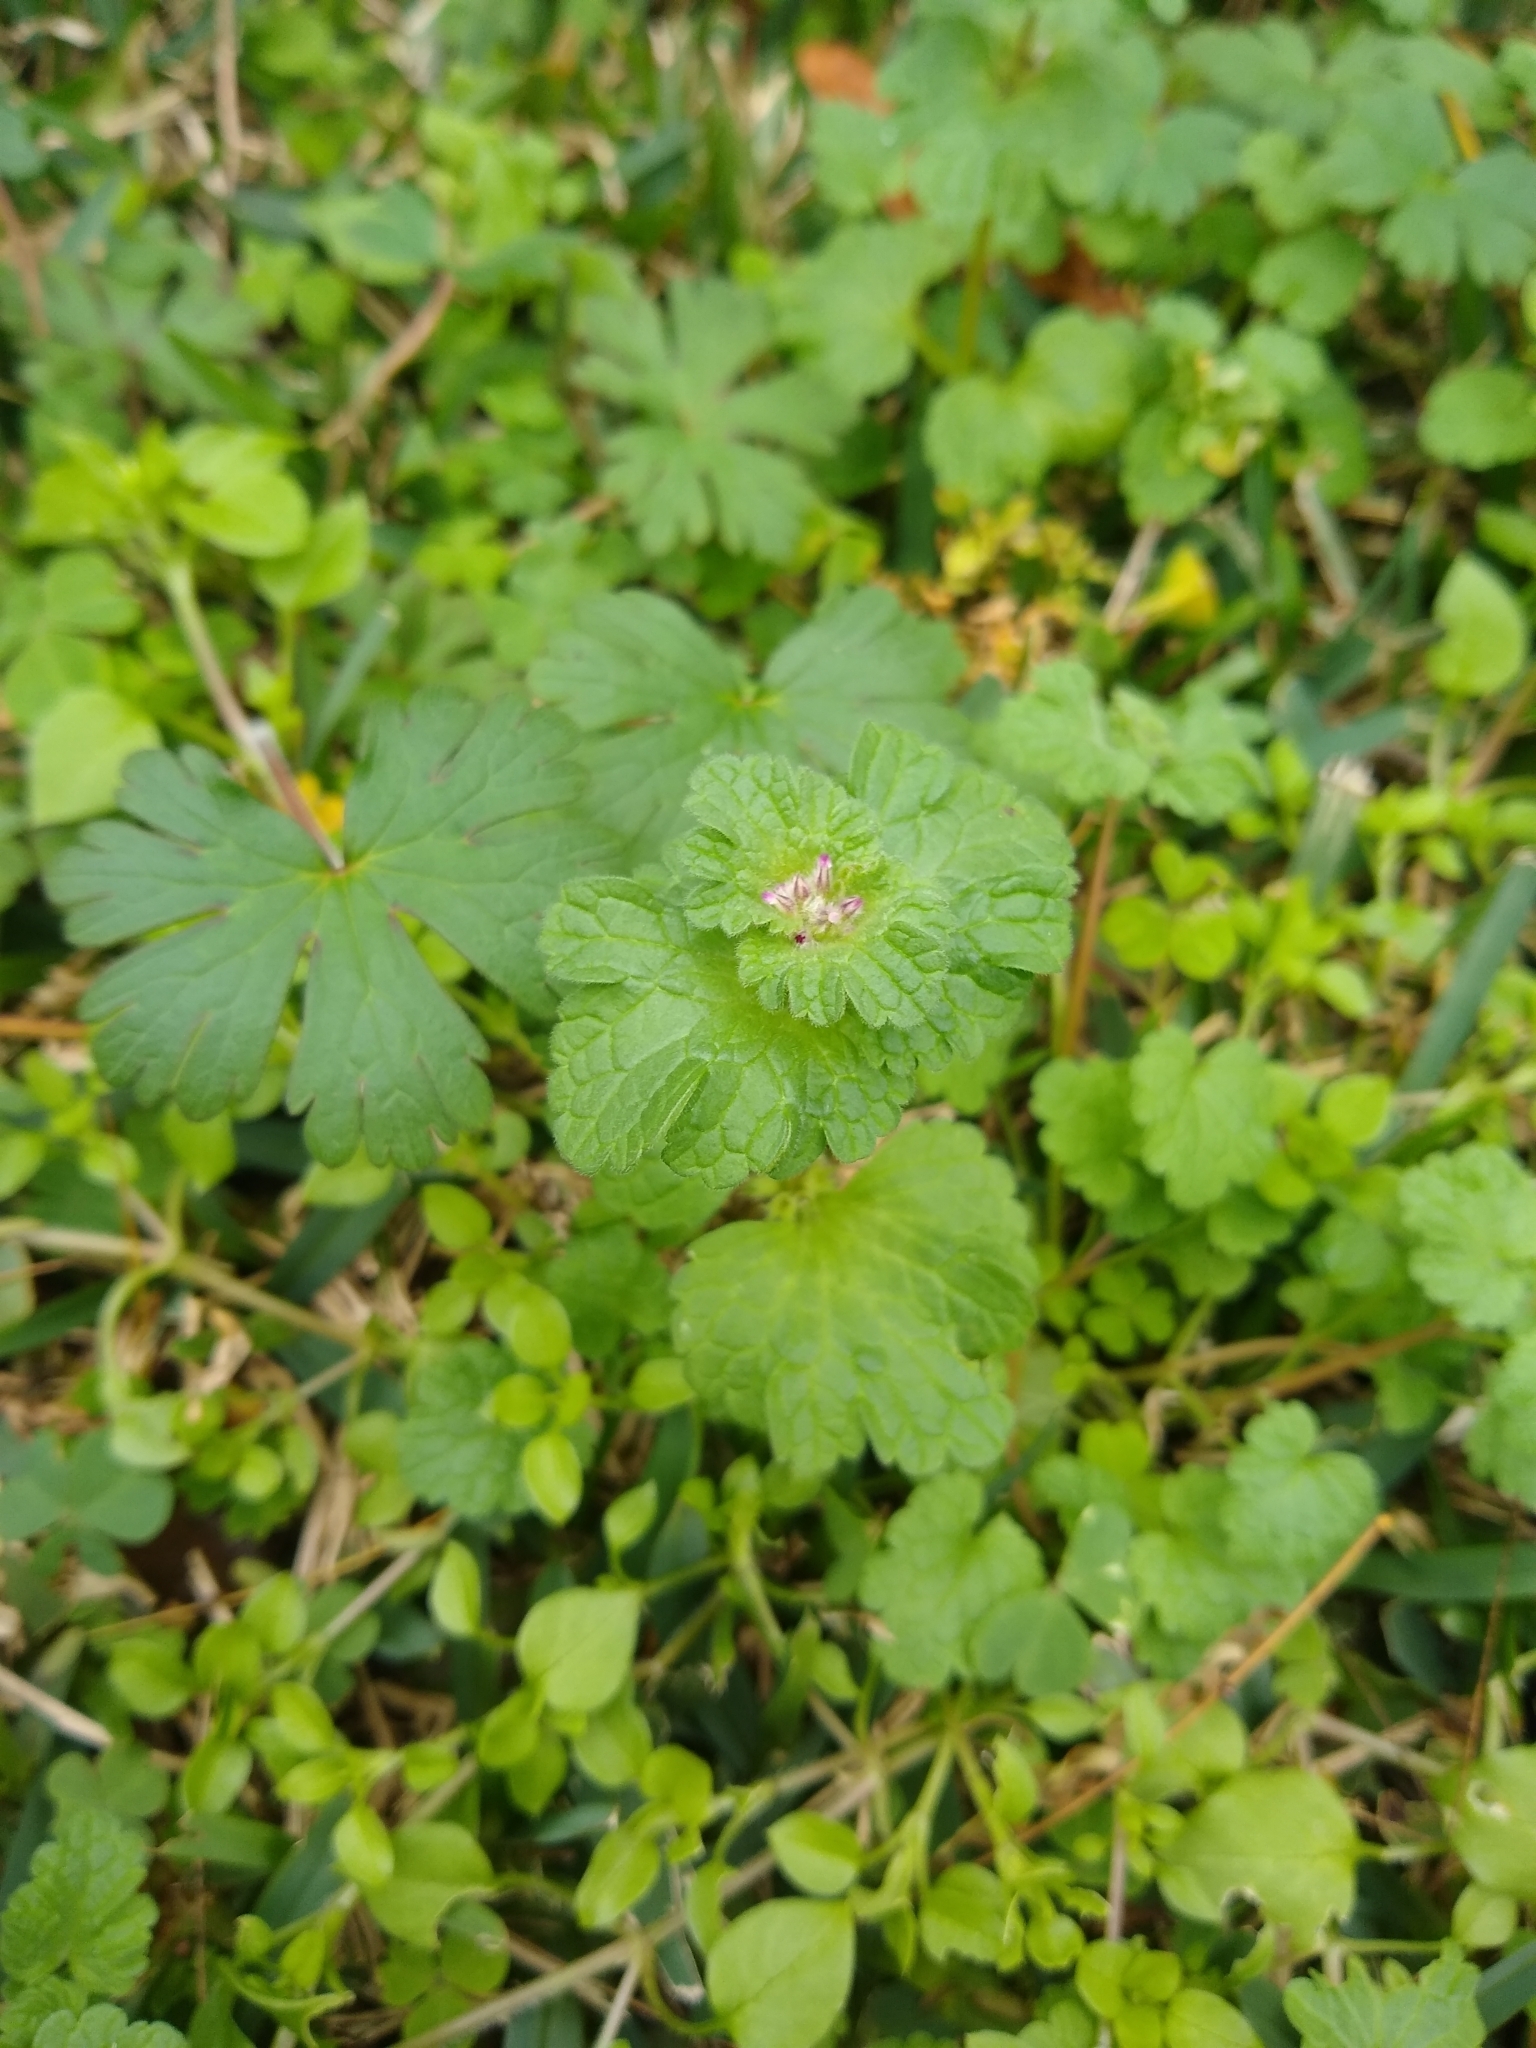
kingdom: Plantae
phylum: Tracheophyta
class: Magnoliopsida
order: Lamiales
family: Lamiaceae
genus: Lamium
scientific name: Lamium amplexicaule
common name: Henbit dead-nettle
